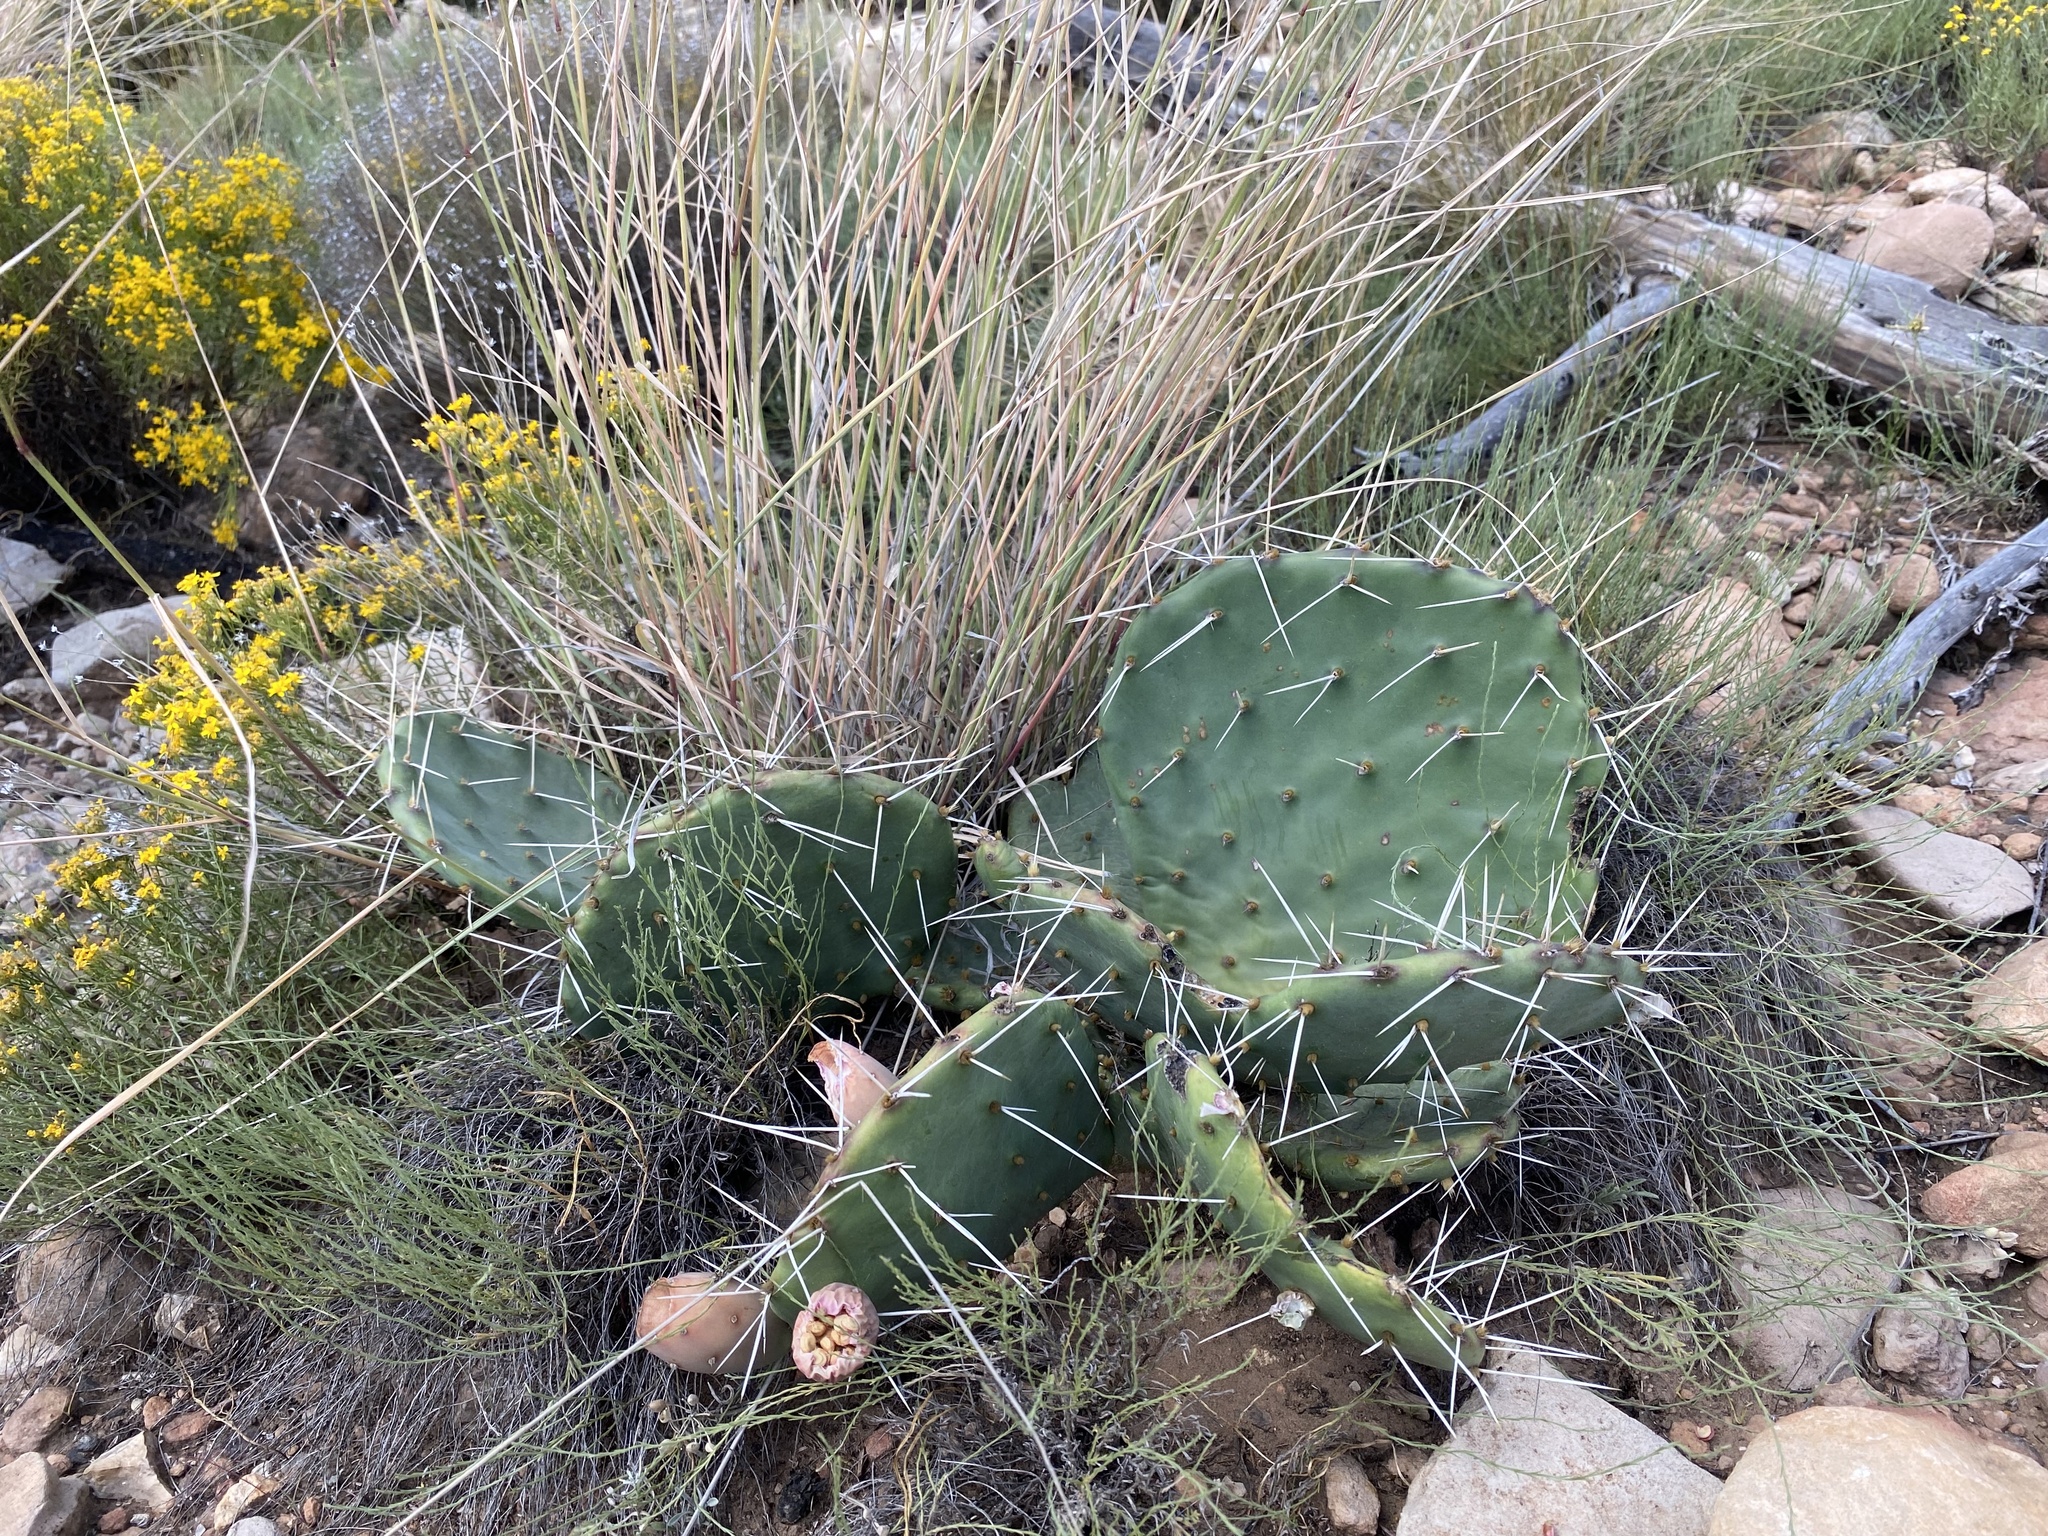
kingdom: Plantae
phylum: Tracheophyta
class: Magnoliopsida
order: Caryophyllales
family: Cactaceae
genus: Opuntia
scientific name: Opuntia pottsii
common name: Potts's prickly-pear
